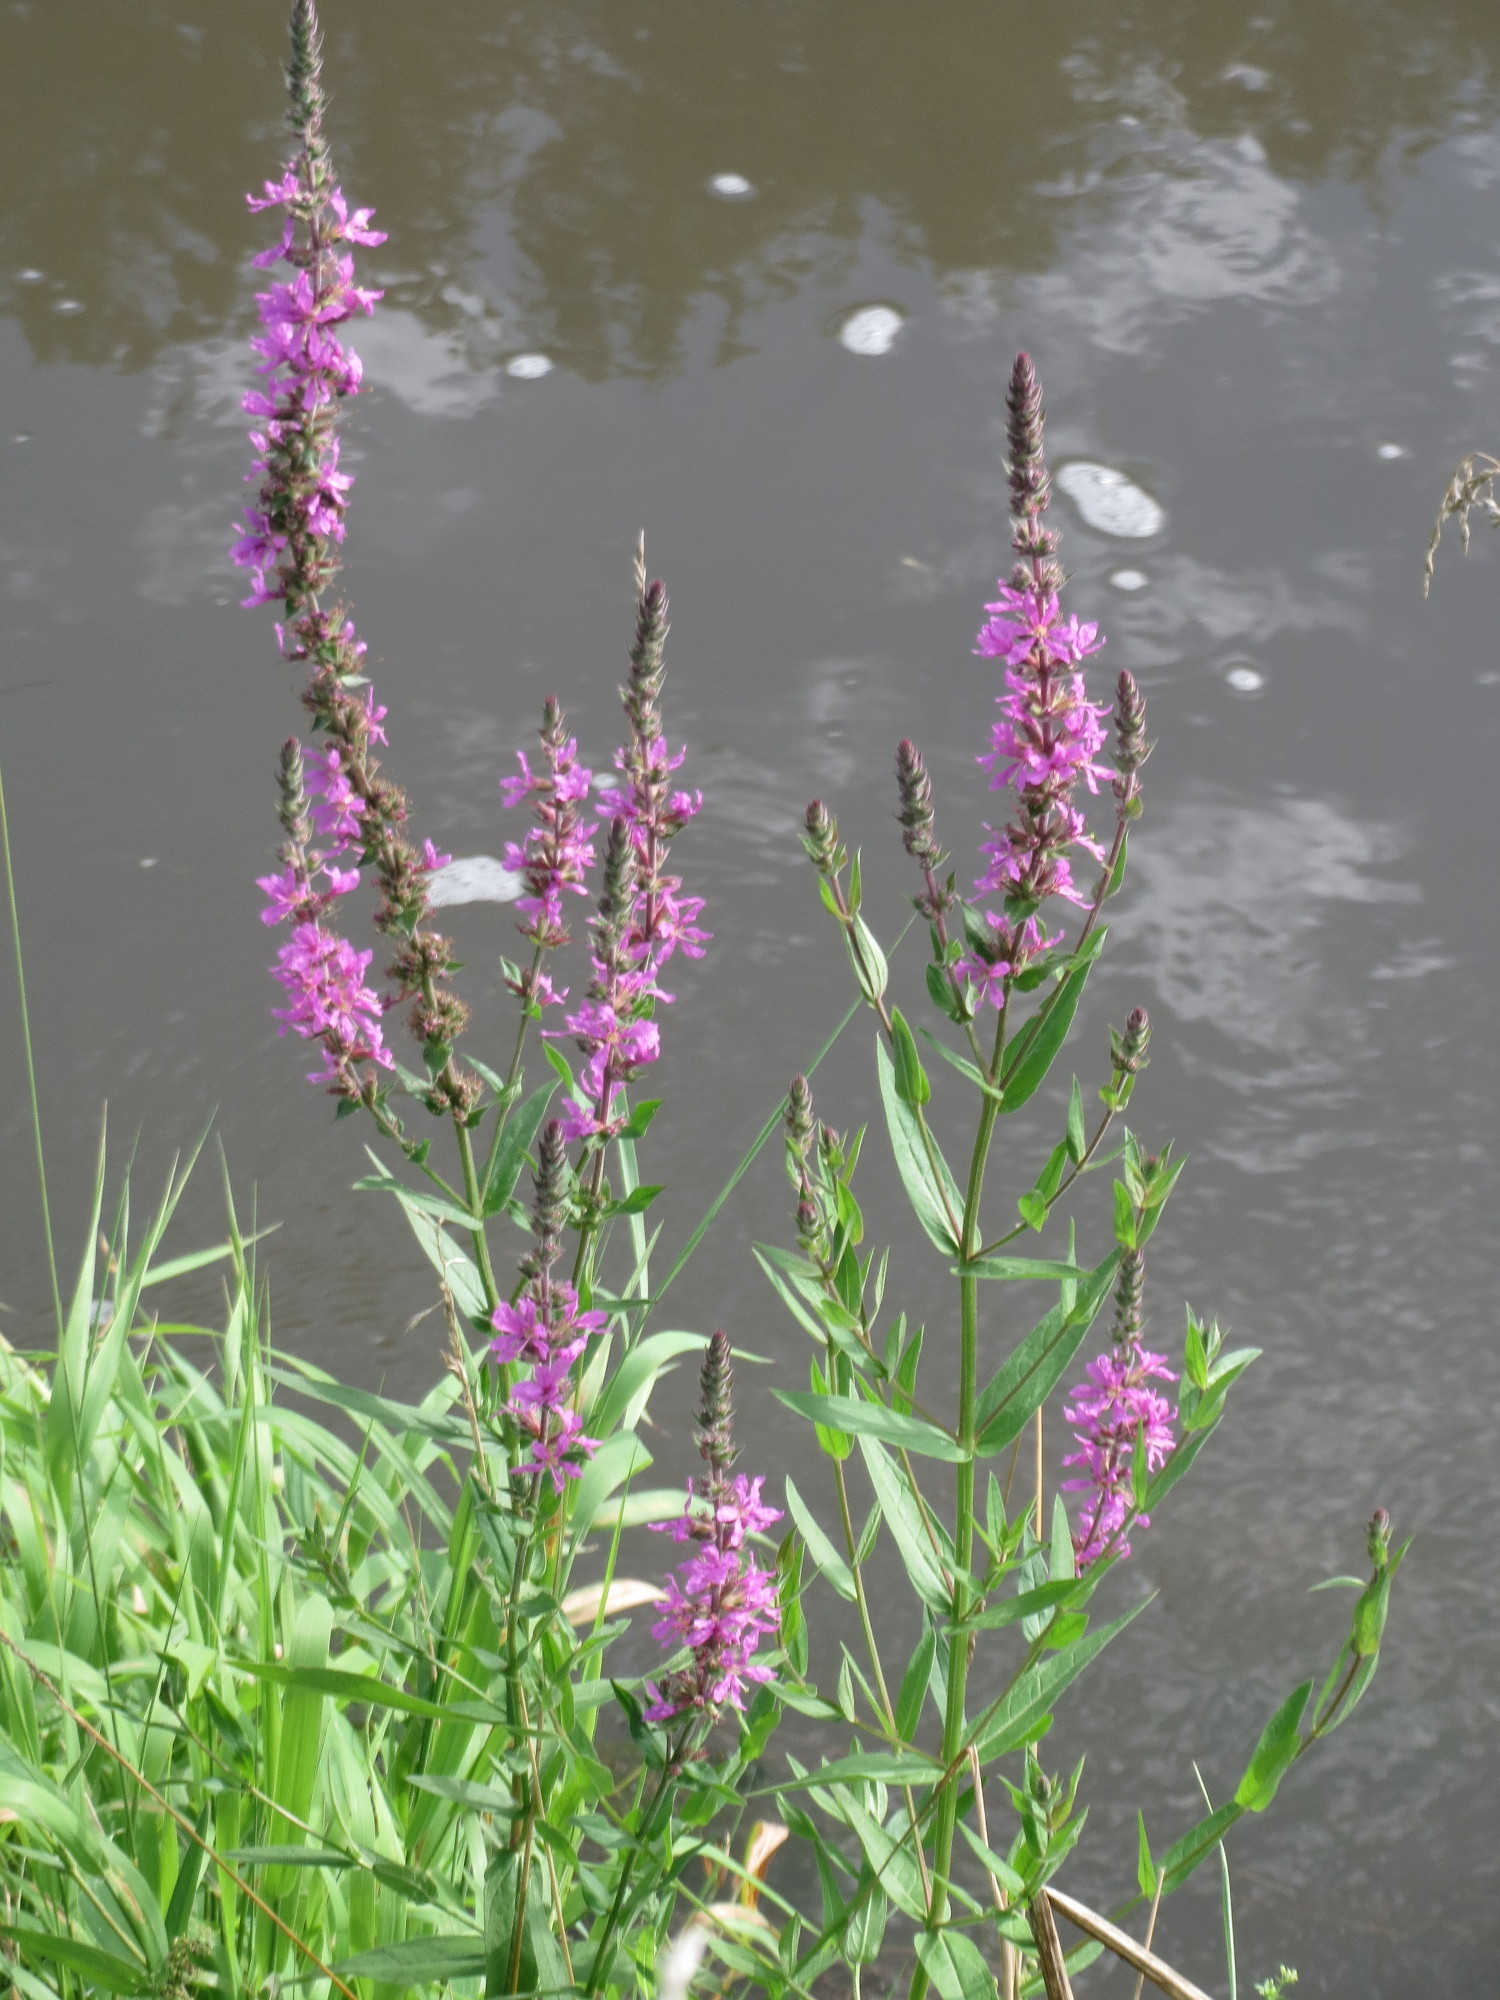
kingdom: Plantae
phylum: Tracheophyta
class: Magnoliopsida
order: Myrtales
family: Lythraceae
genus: Lythrum
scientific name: Lythrum salicaria
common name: Purple loosestrife
